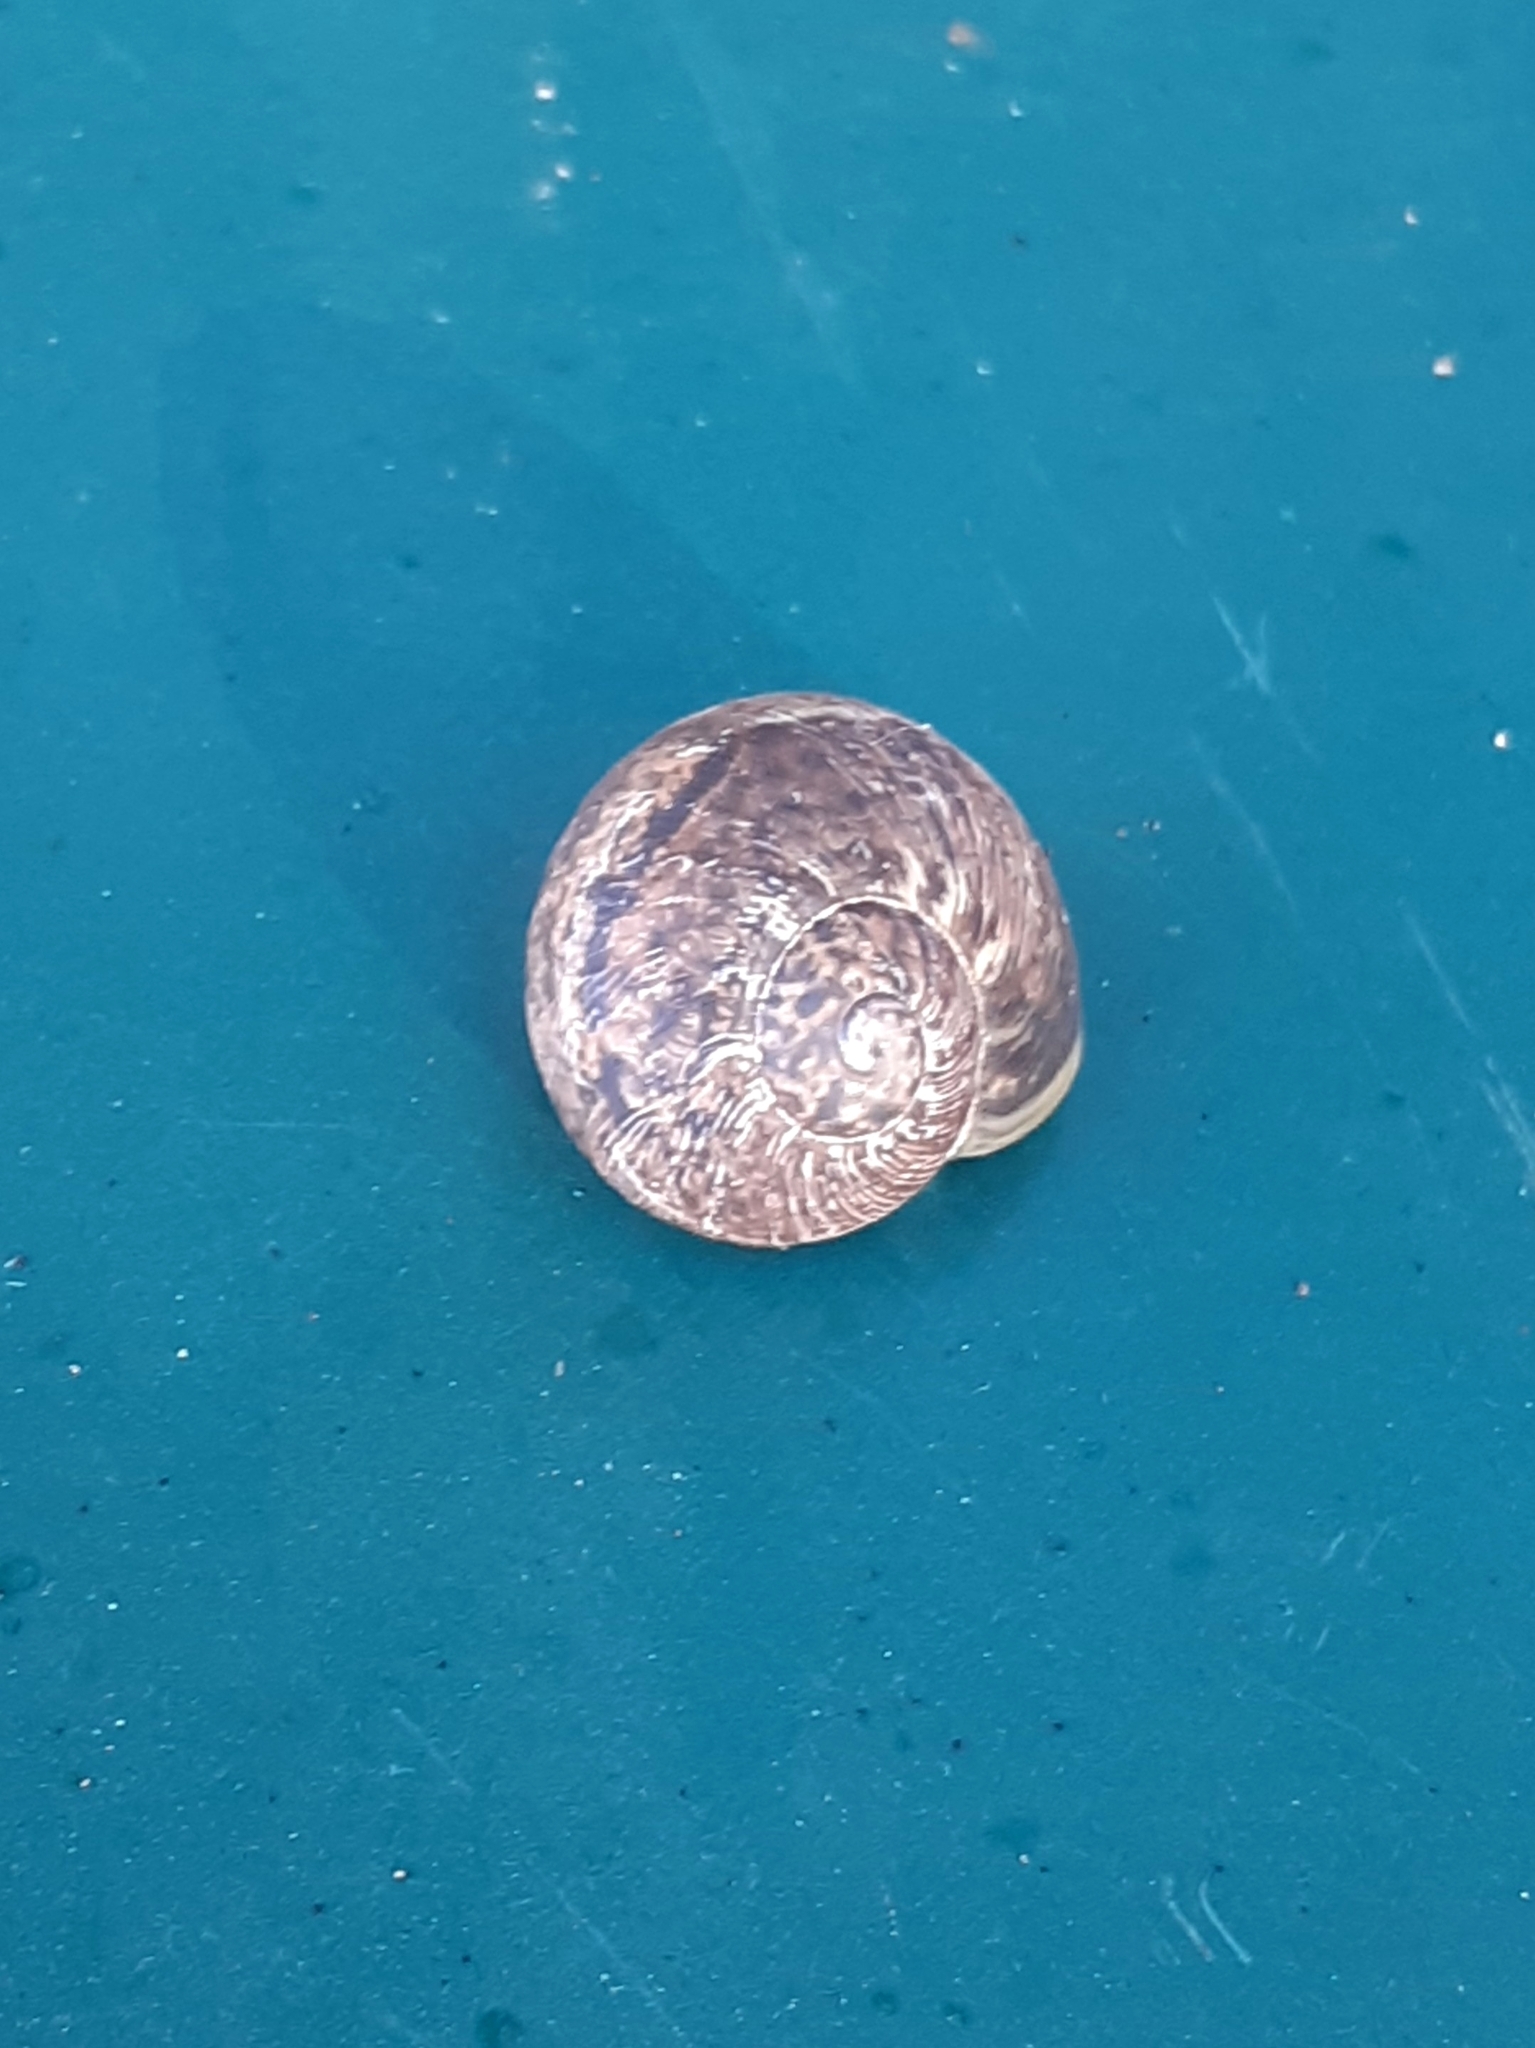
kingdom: Animalia
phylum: Mollusca
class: Gastropoda
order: Stylommatophora
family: Helicidae
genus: Cornu
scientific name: Cornu aspersum
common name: Brown garden snail
